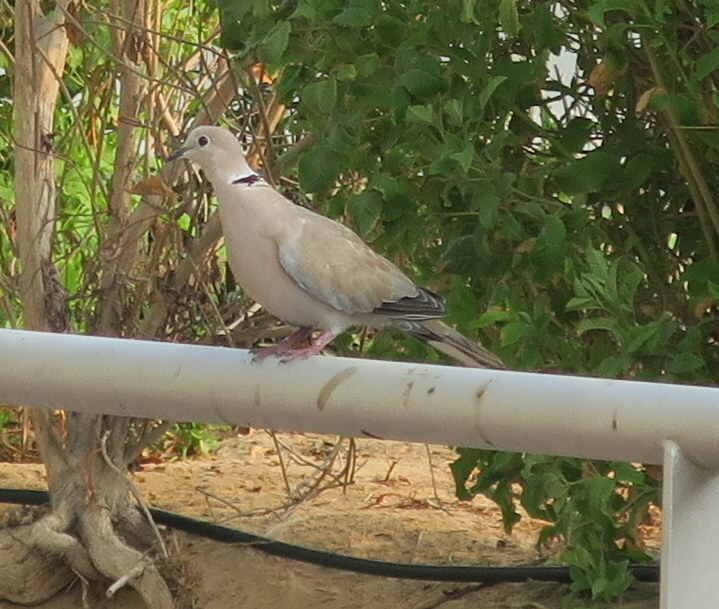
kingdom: Animalia
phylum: Chordata
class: Aves
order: Columbiformes
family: Columbidae
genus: Streptopelia
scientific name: Streptopelia decaocto
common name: Eurasian collared dove
